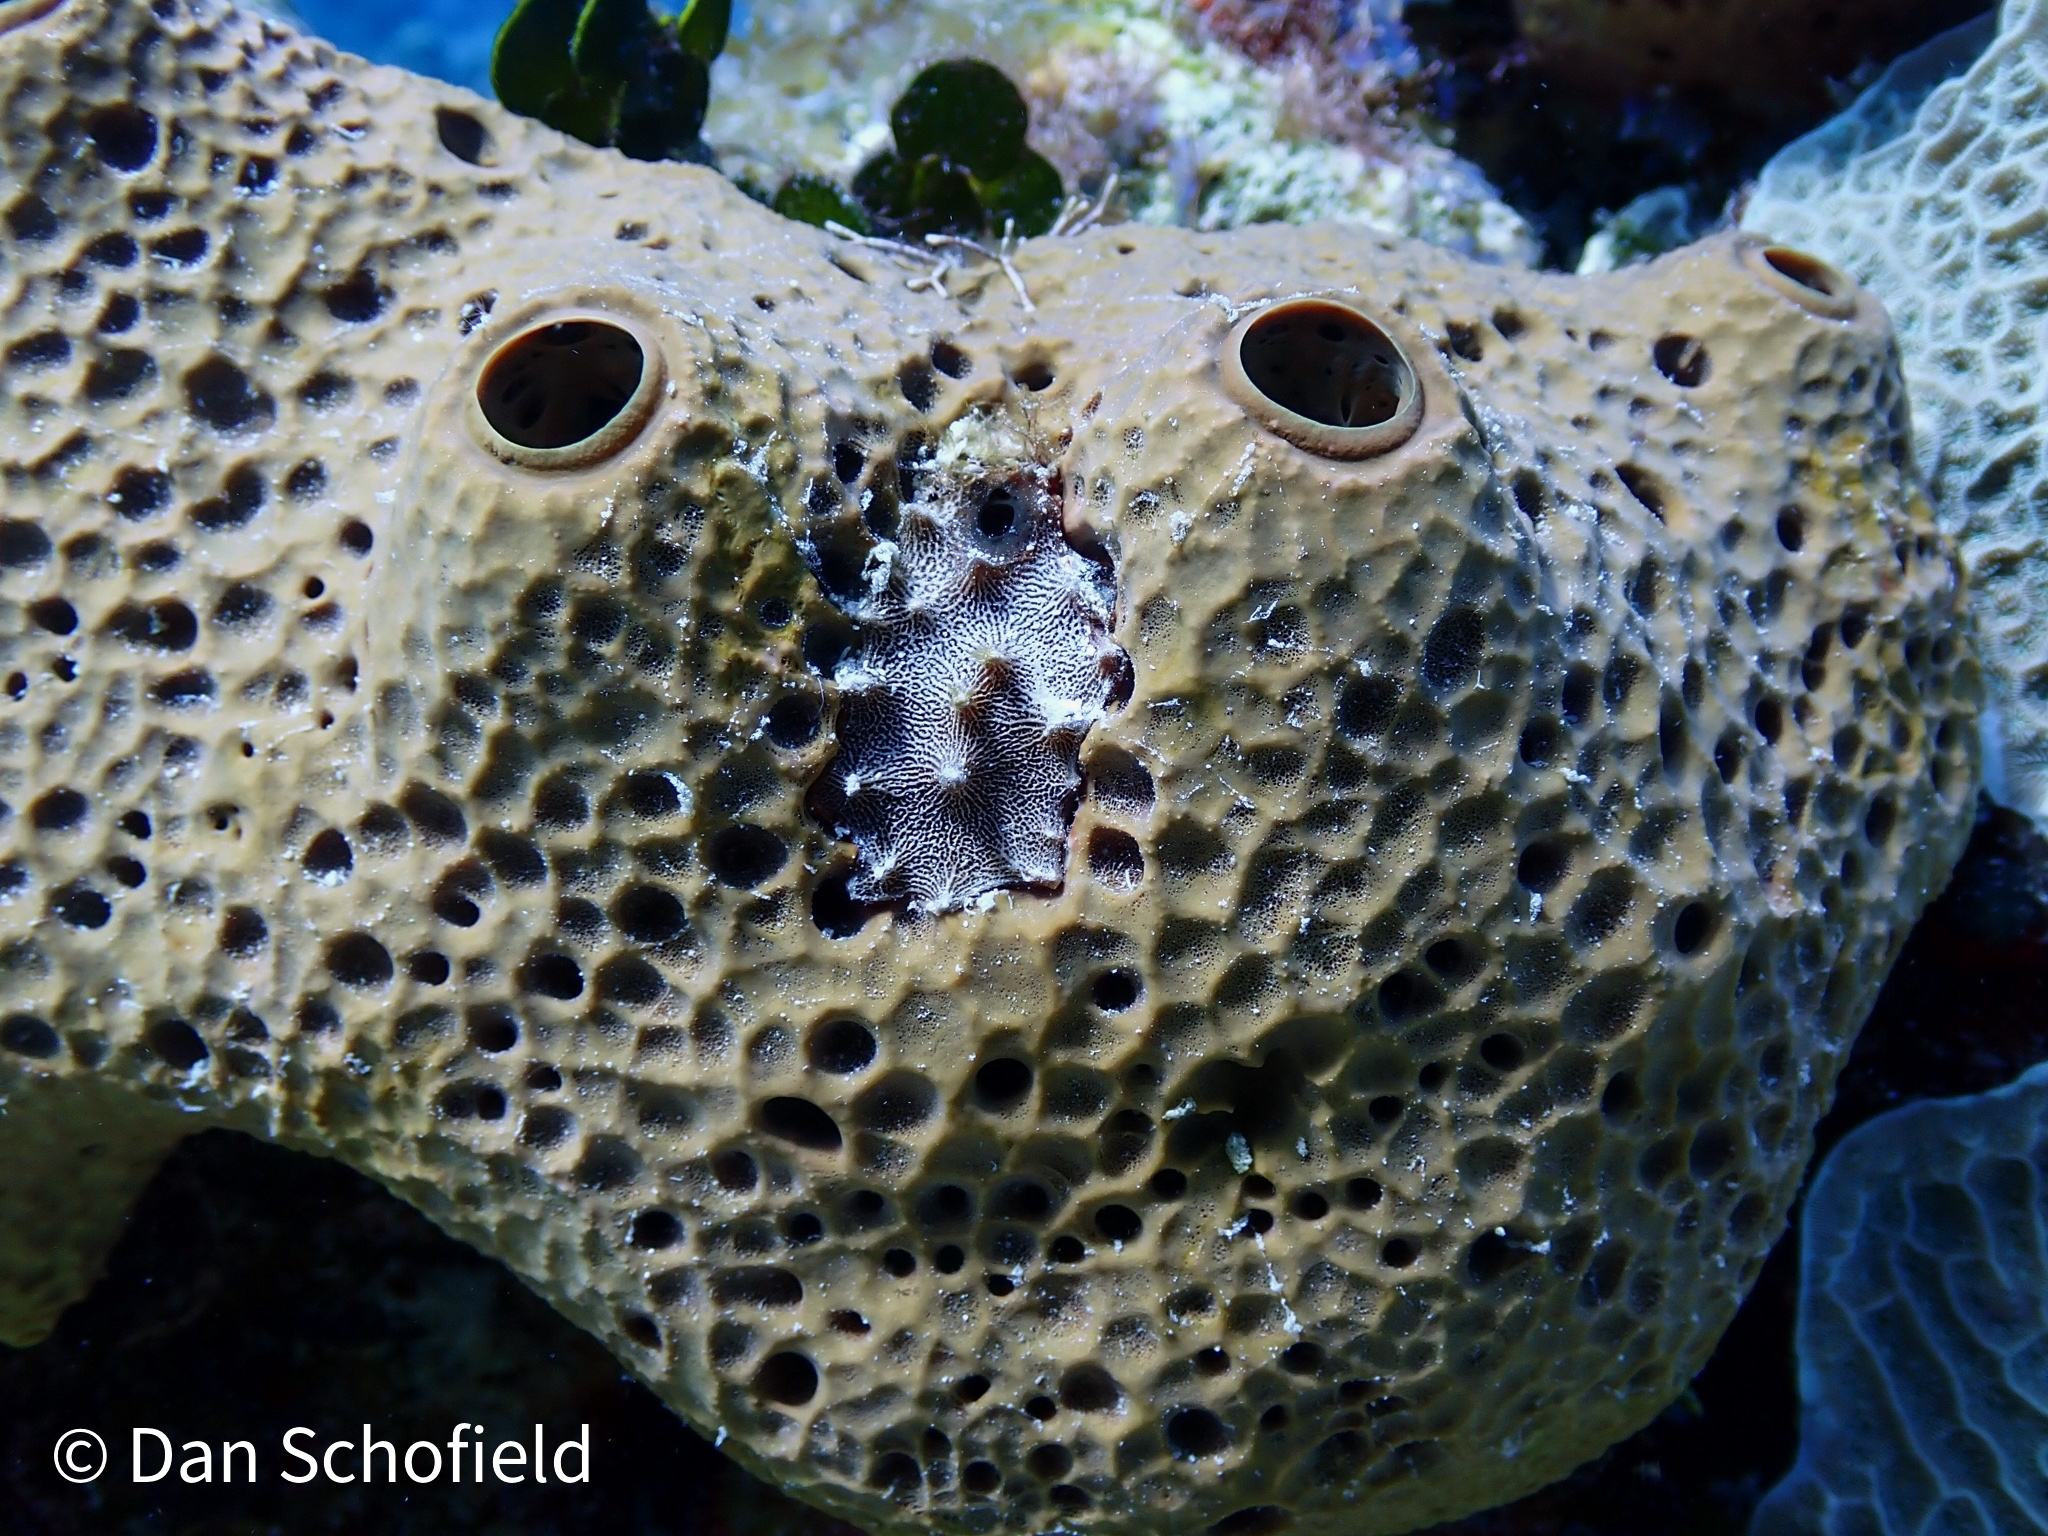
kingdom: Animalia
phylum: Porifera
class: Demospongiae
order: Dictyoceratida
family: Irciniidae
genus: Ircinia
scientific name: Ircinia felix
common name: Stinker sponge
